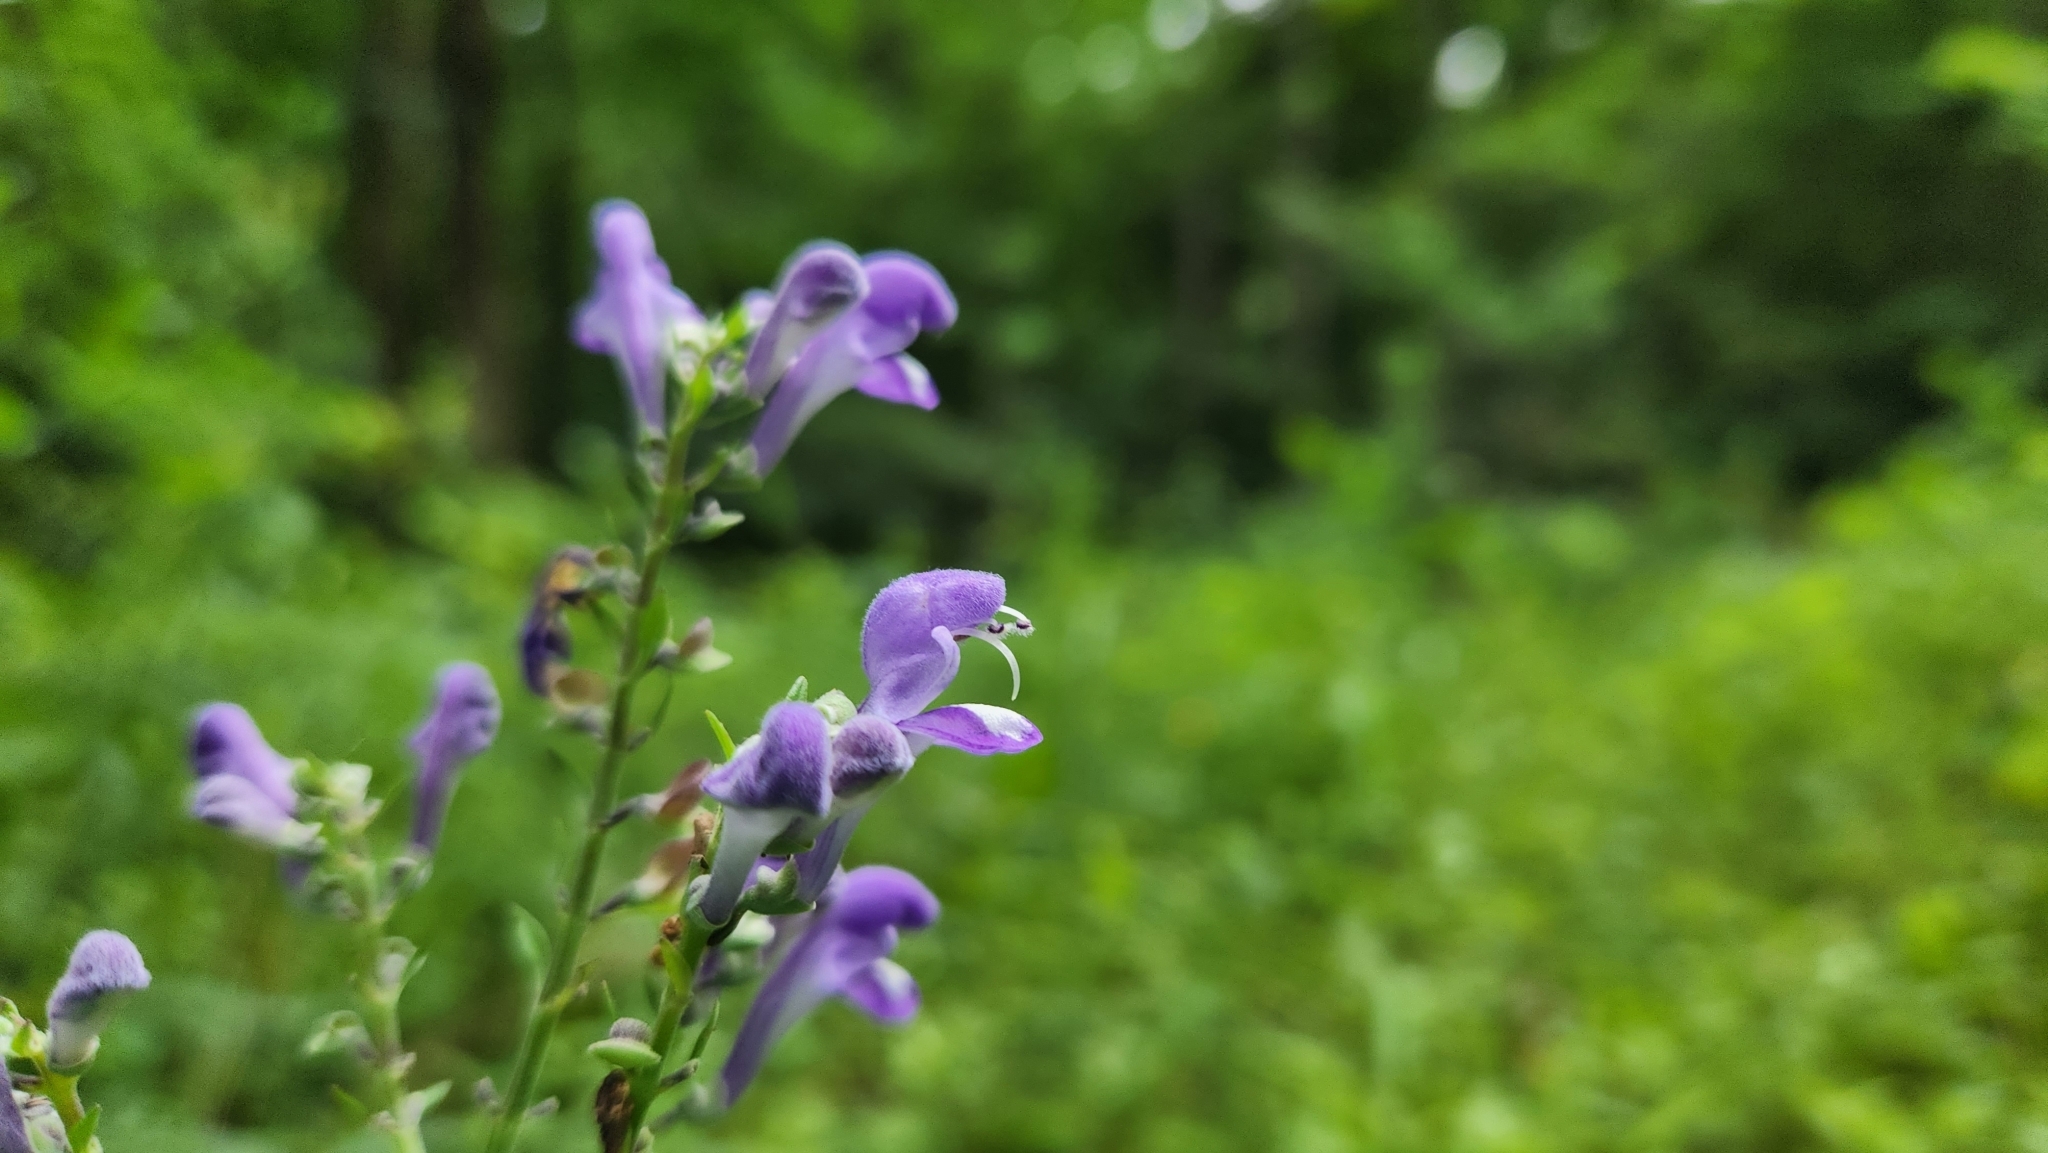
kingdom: Plantae
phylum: Tracheophyta
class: Magnoliopsida
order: Lamiales
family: Lamiaceae
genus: Scutellaria
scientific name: Scutellaria incana
